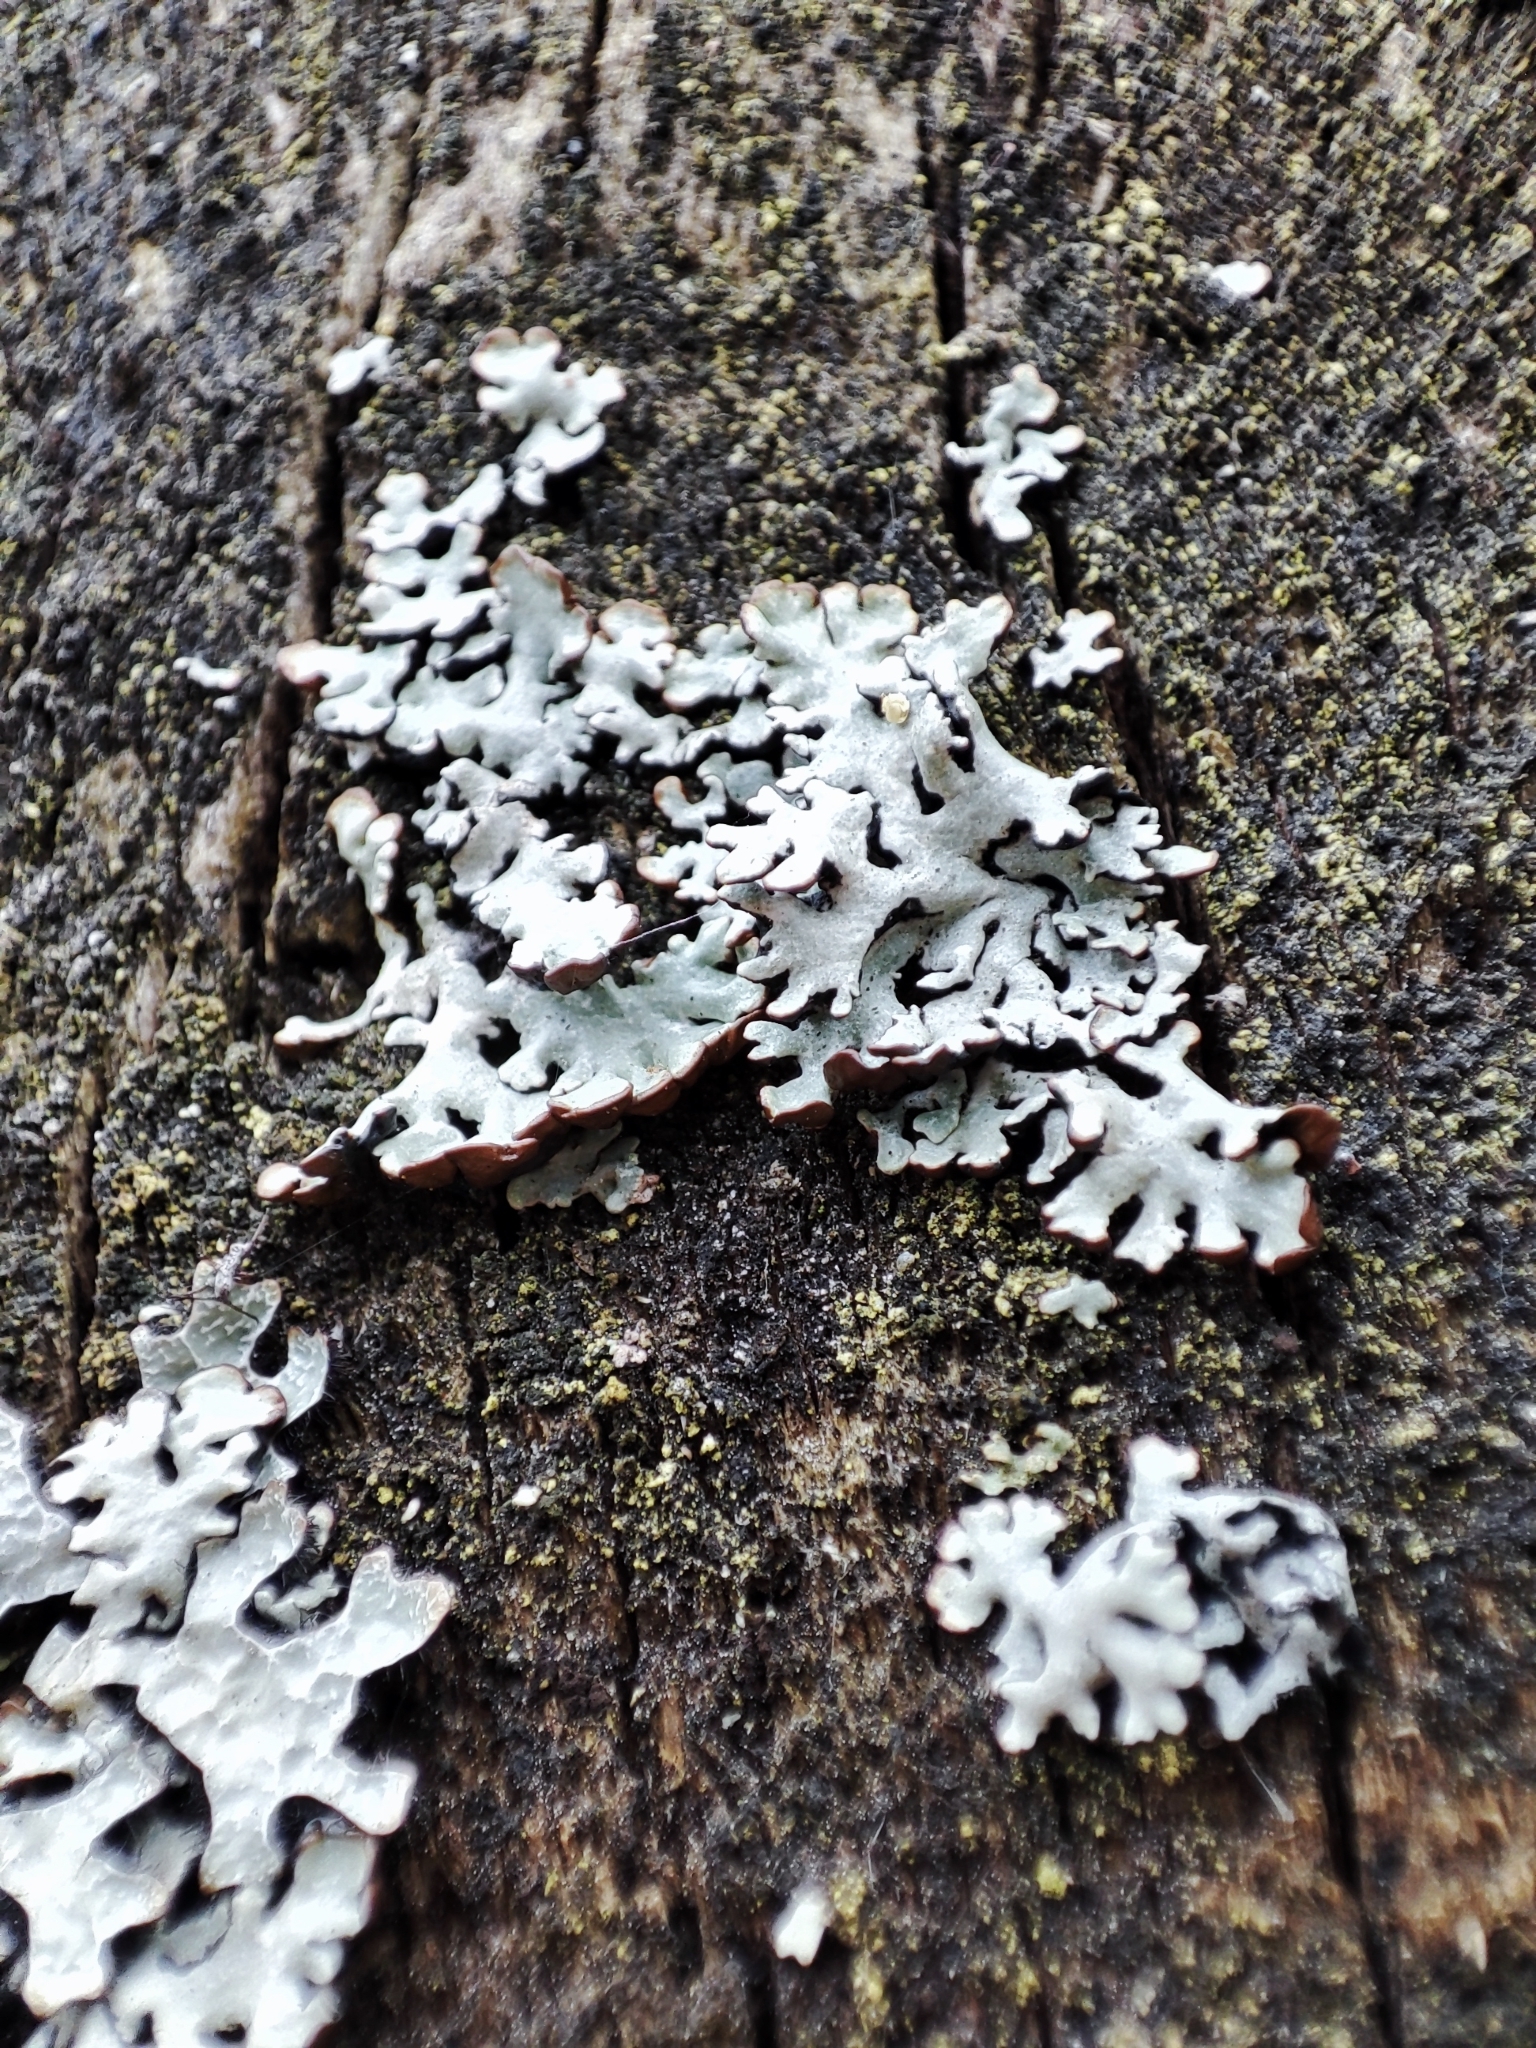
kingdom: Fungi
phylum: Ascomycota
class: Lecanoromycetes
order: Lecanorales
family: Parmeliaceae
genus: Parmelia
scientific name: Parmelia sulcata
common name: Netted shield lichen
